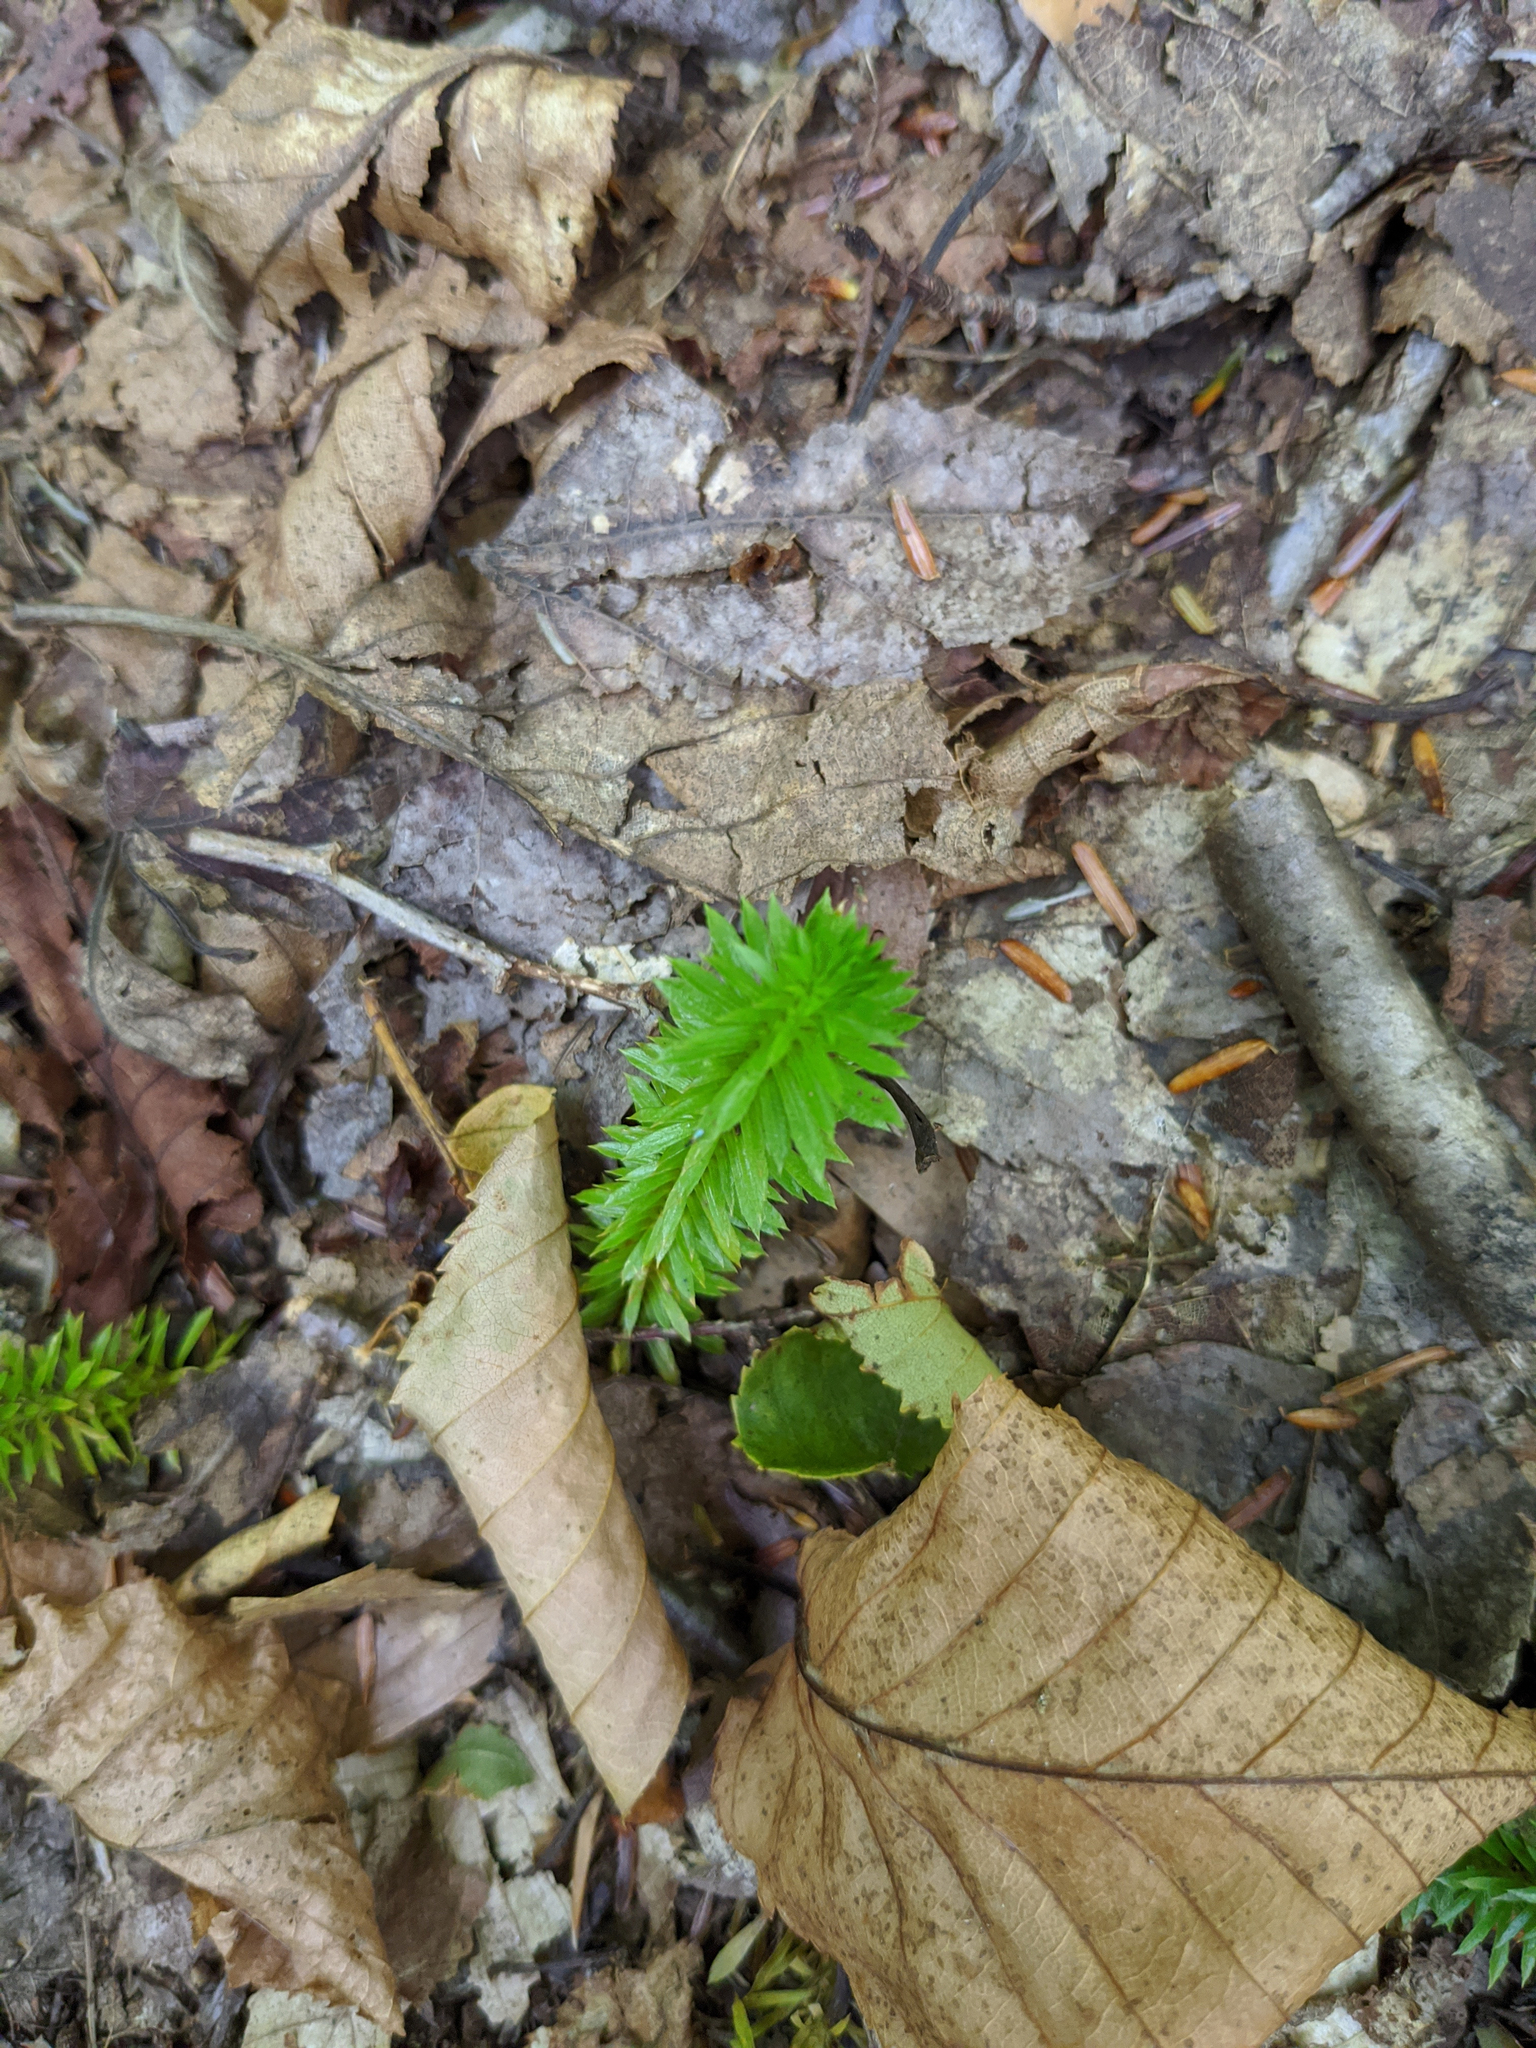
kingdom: Plantae
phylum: Tracheophyta
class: Lycopodiopsida
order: Lycopodiales
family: Lycopodiaceae
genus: Spinulum
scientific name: Spinulum annotinum
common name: Interrupted club-moss
